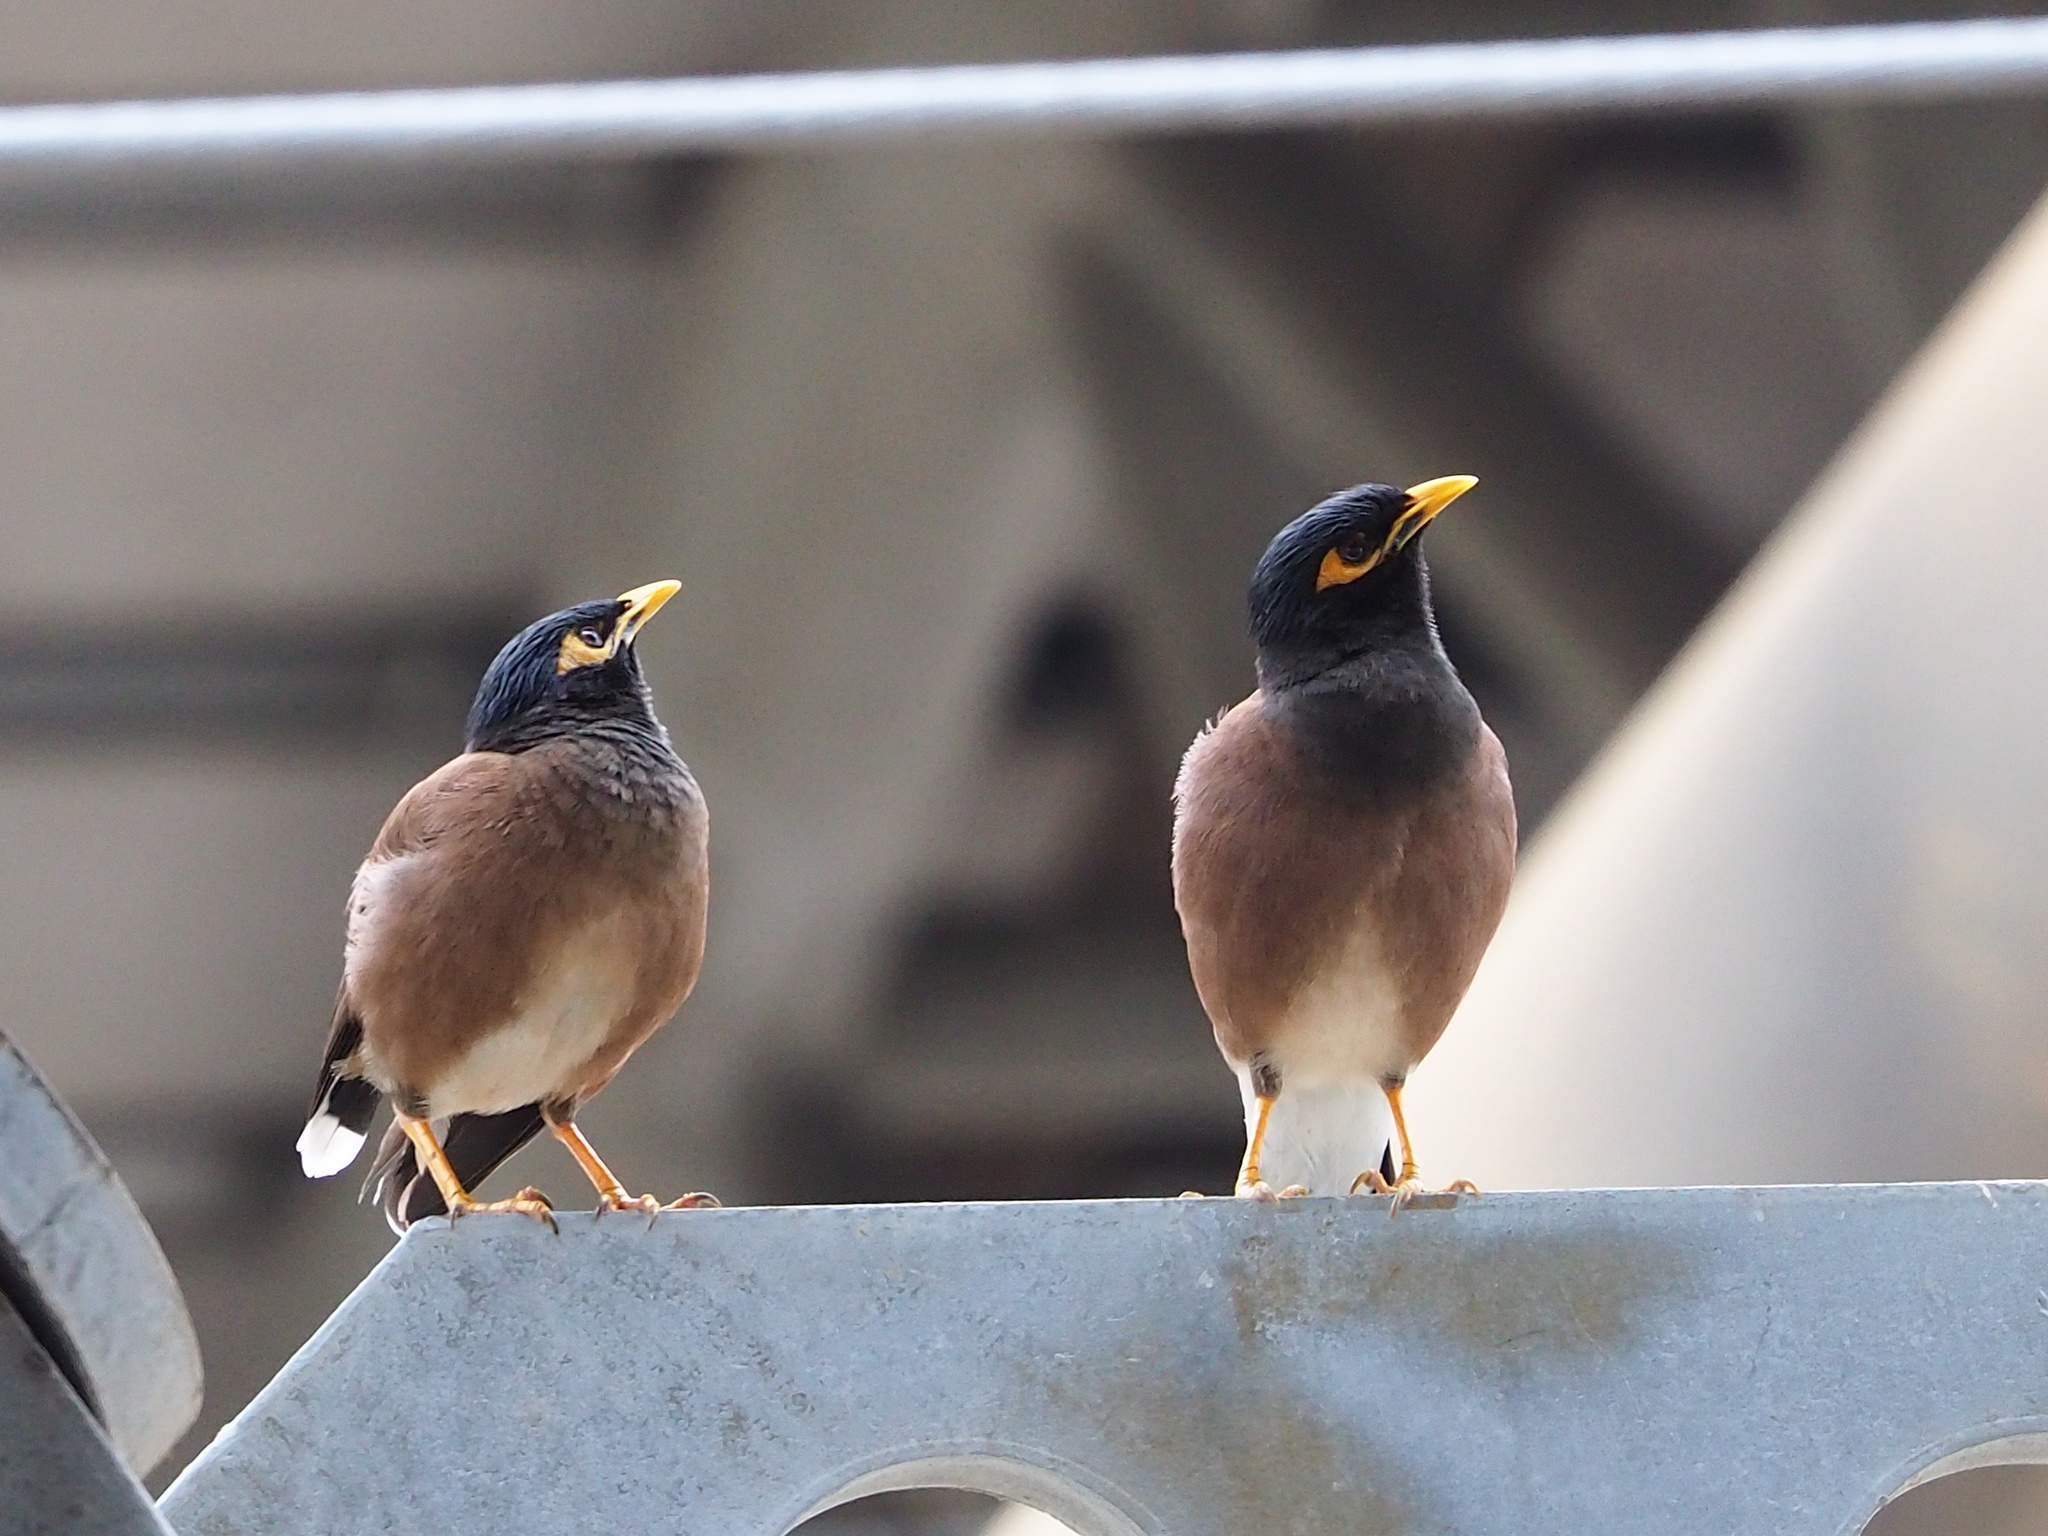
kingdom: Animalia
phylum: Chordata
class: Aves
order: Passeriformes
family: Sturnidae
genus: Acridotheres
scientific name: Acridotheres tristis
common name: Common myna
